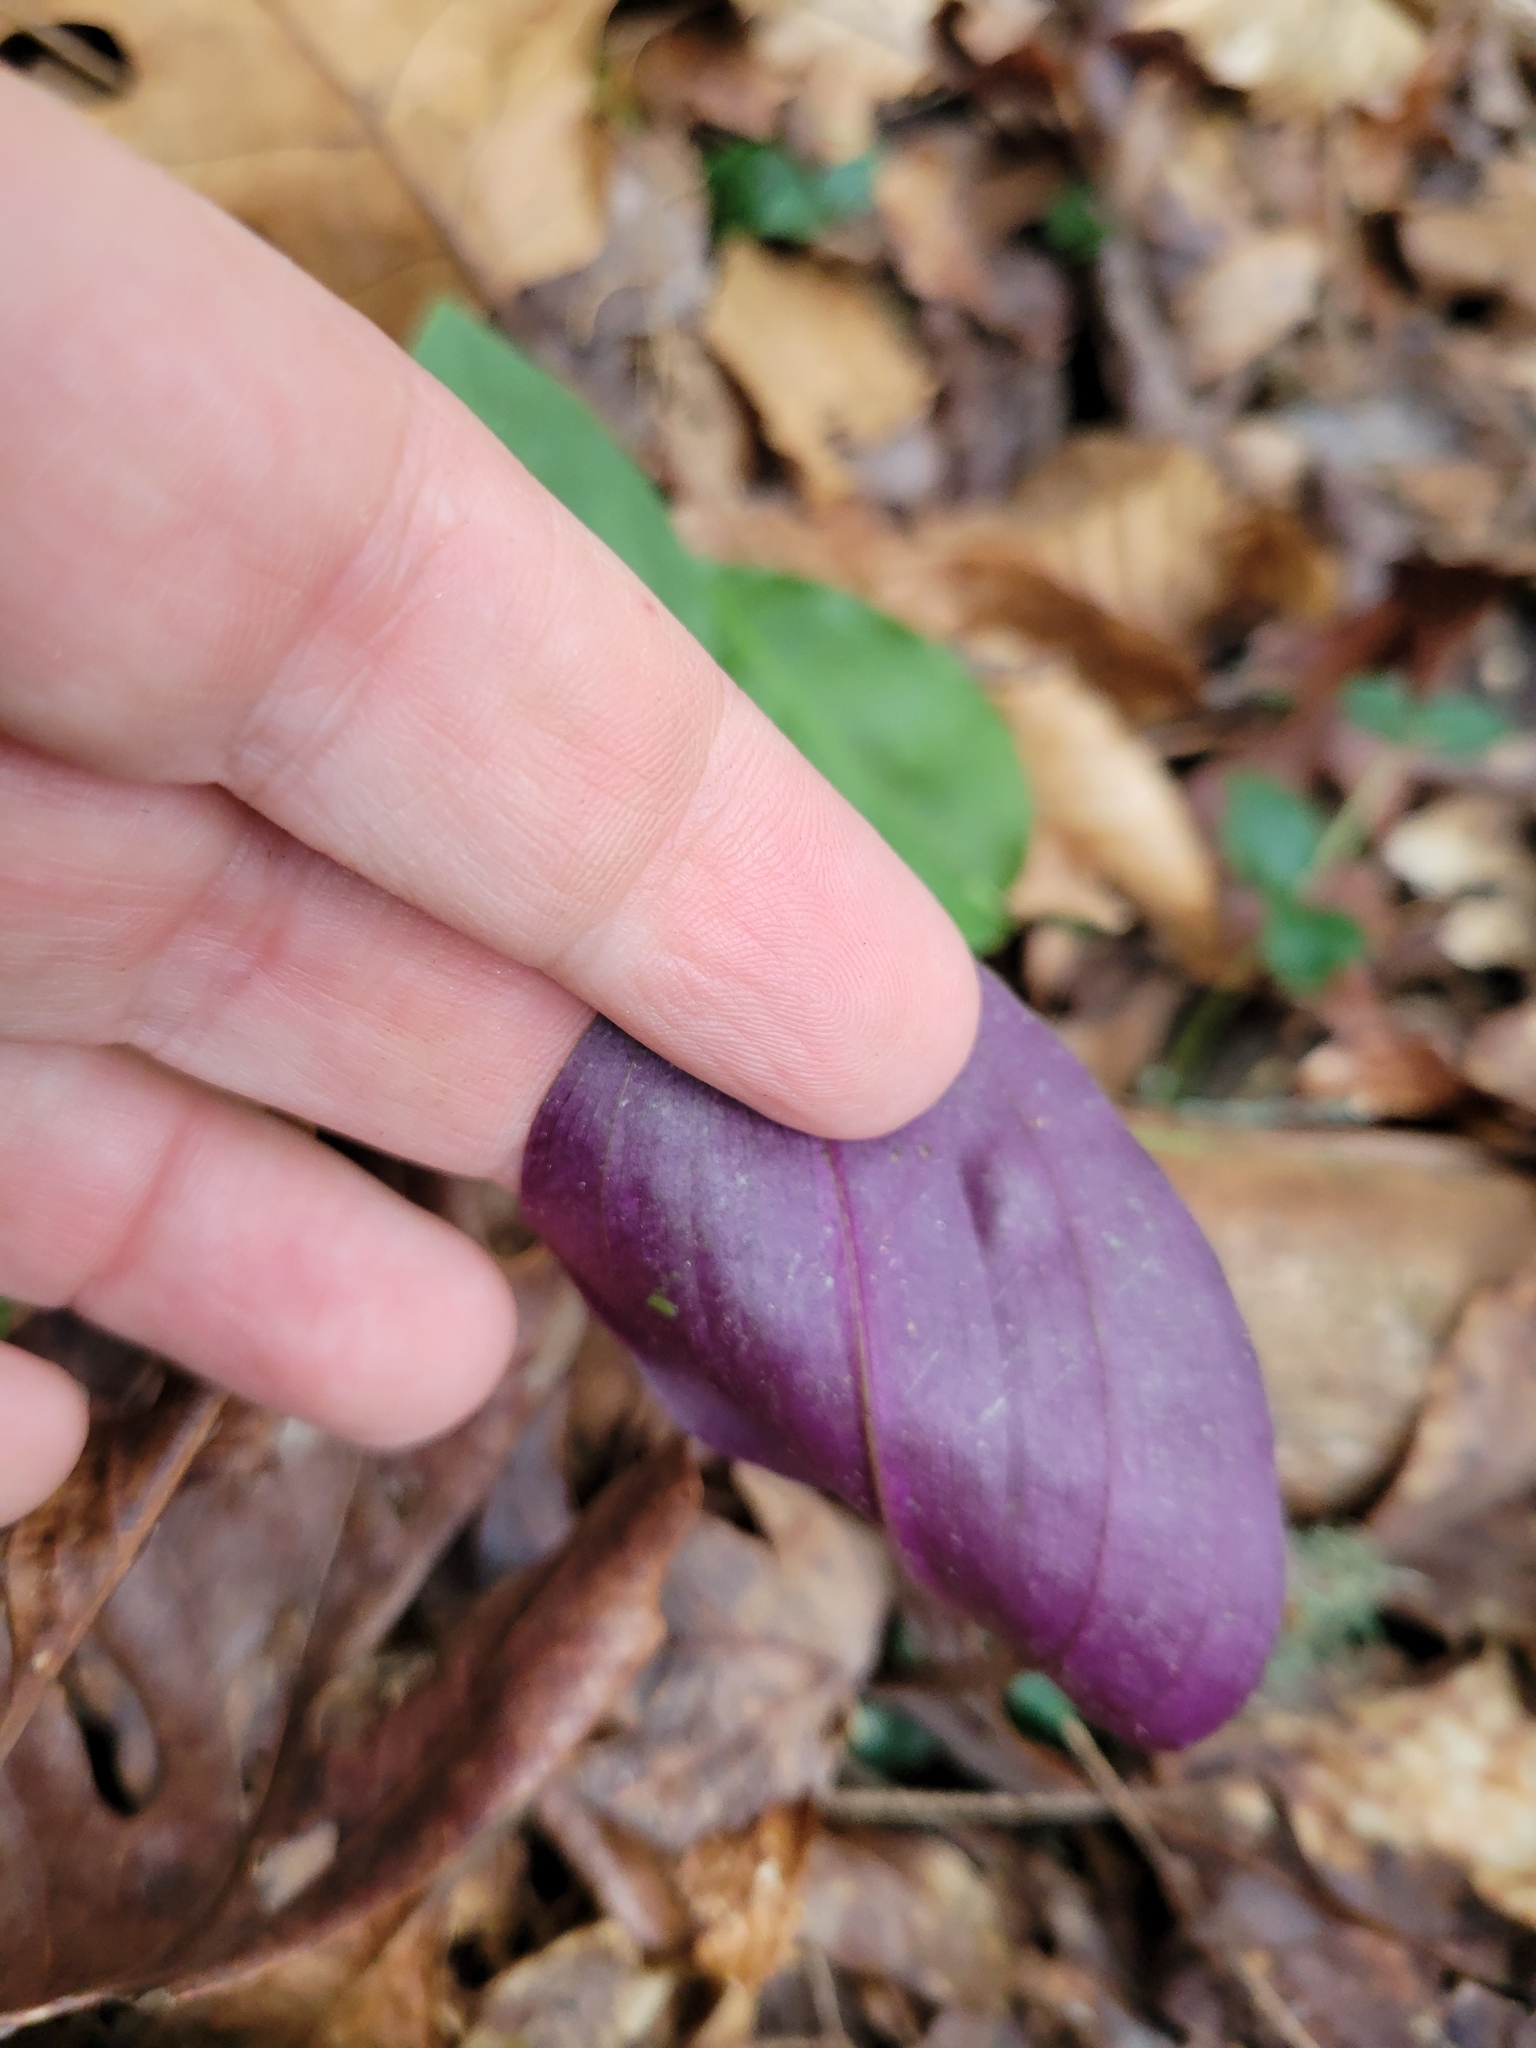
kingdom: Plantae
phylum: Tracheophyta
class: Liliopsida
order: Asparagales
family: Orchidaceae
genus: Tipularia
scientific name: Tipularia discolor
